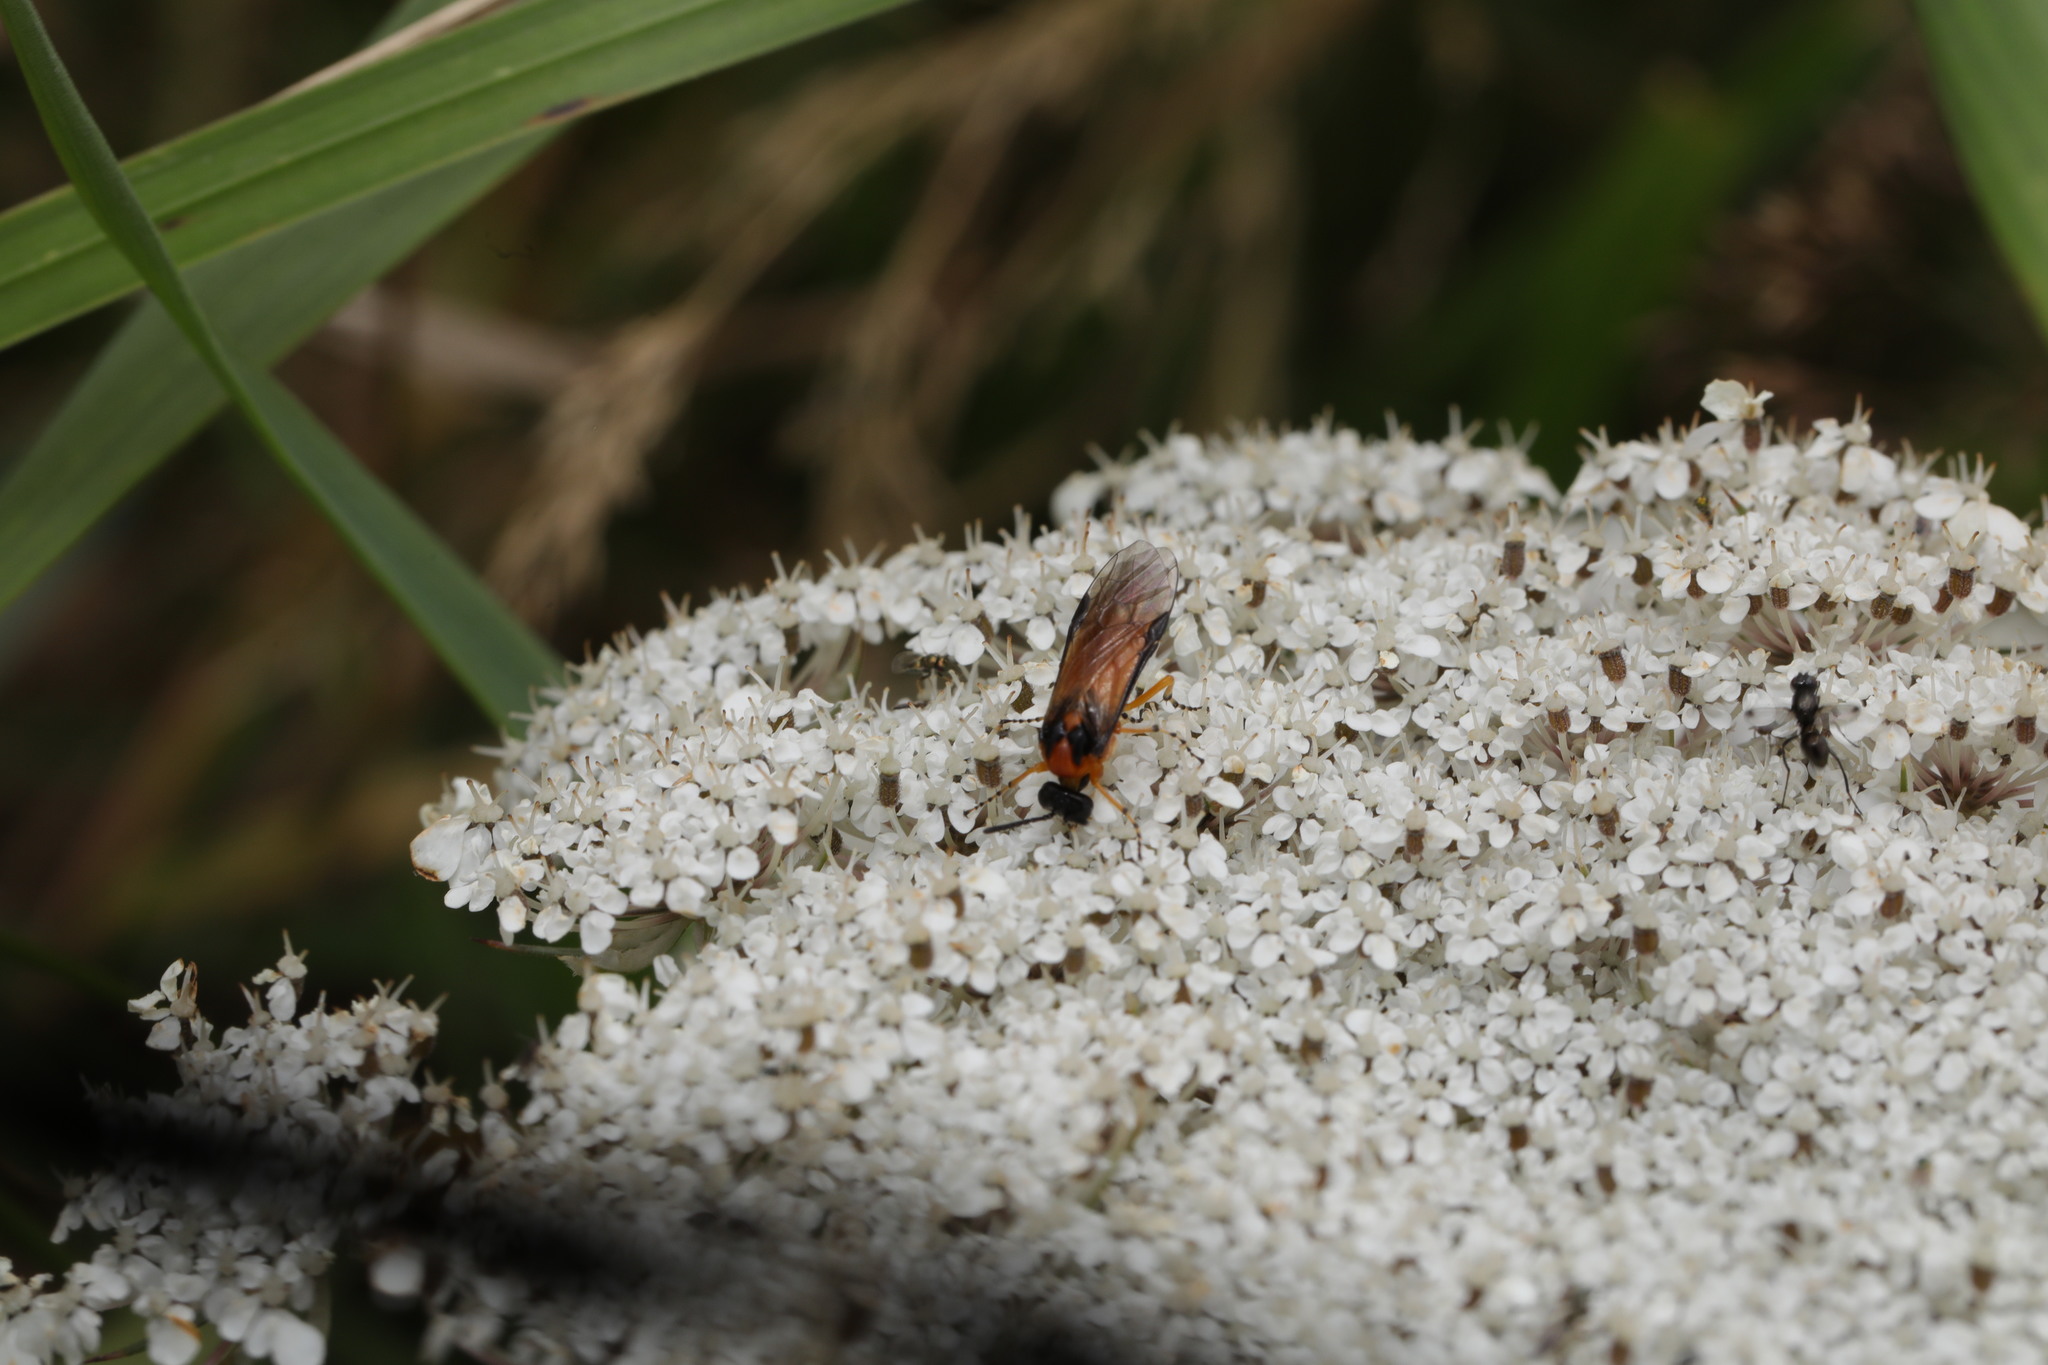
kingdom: Animalia
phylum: Arthropoda
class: Insecta
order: Hymenoptera
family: Tenthredinidae
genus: Athalia
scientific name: Athalia rosae
